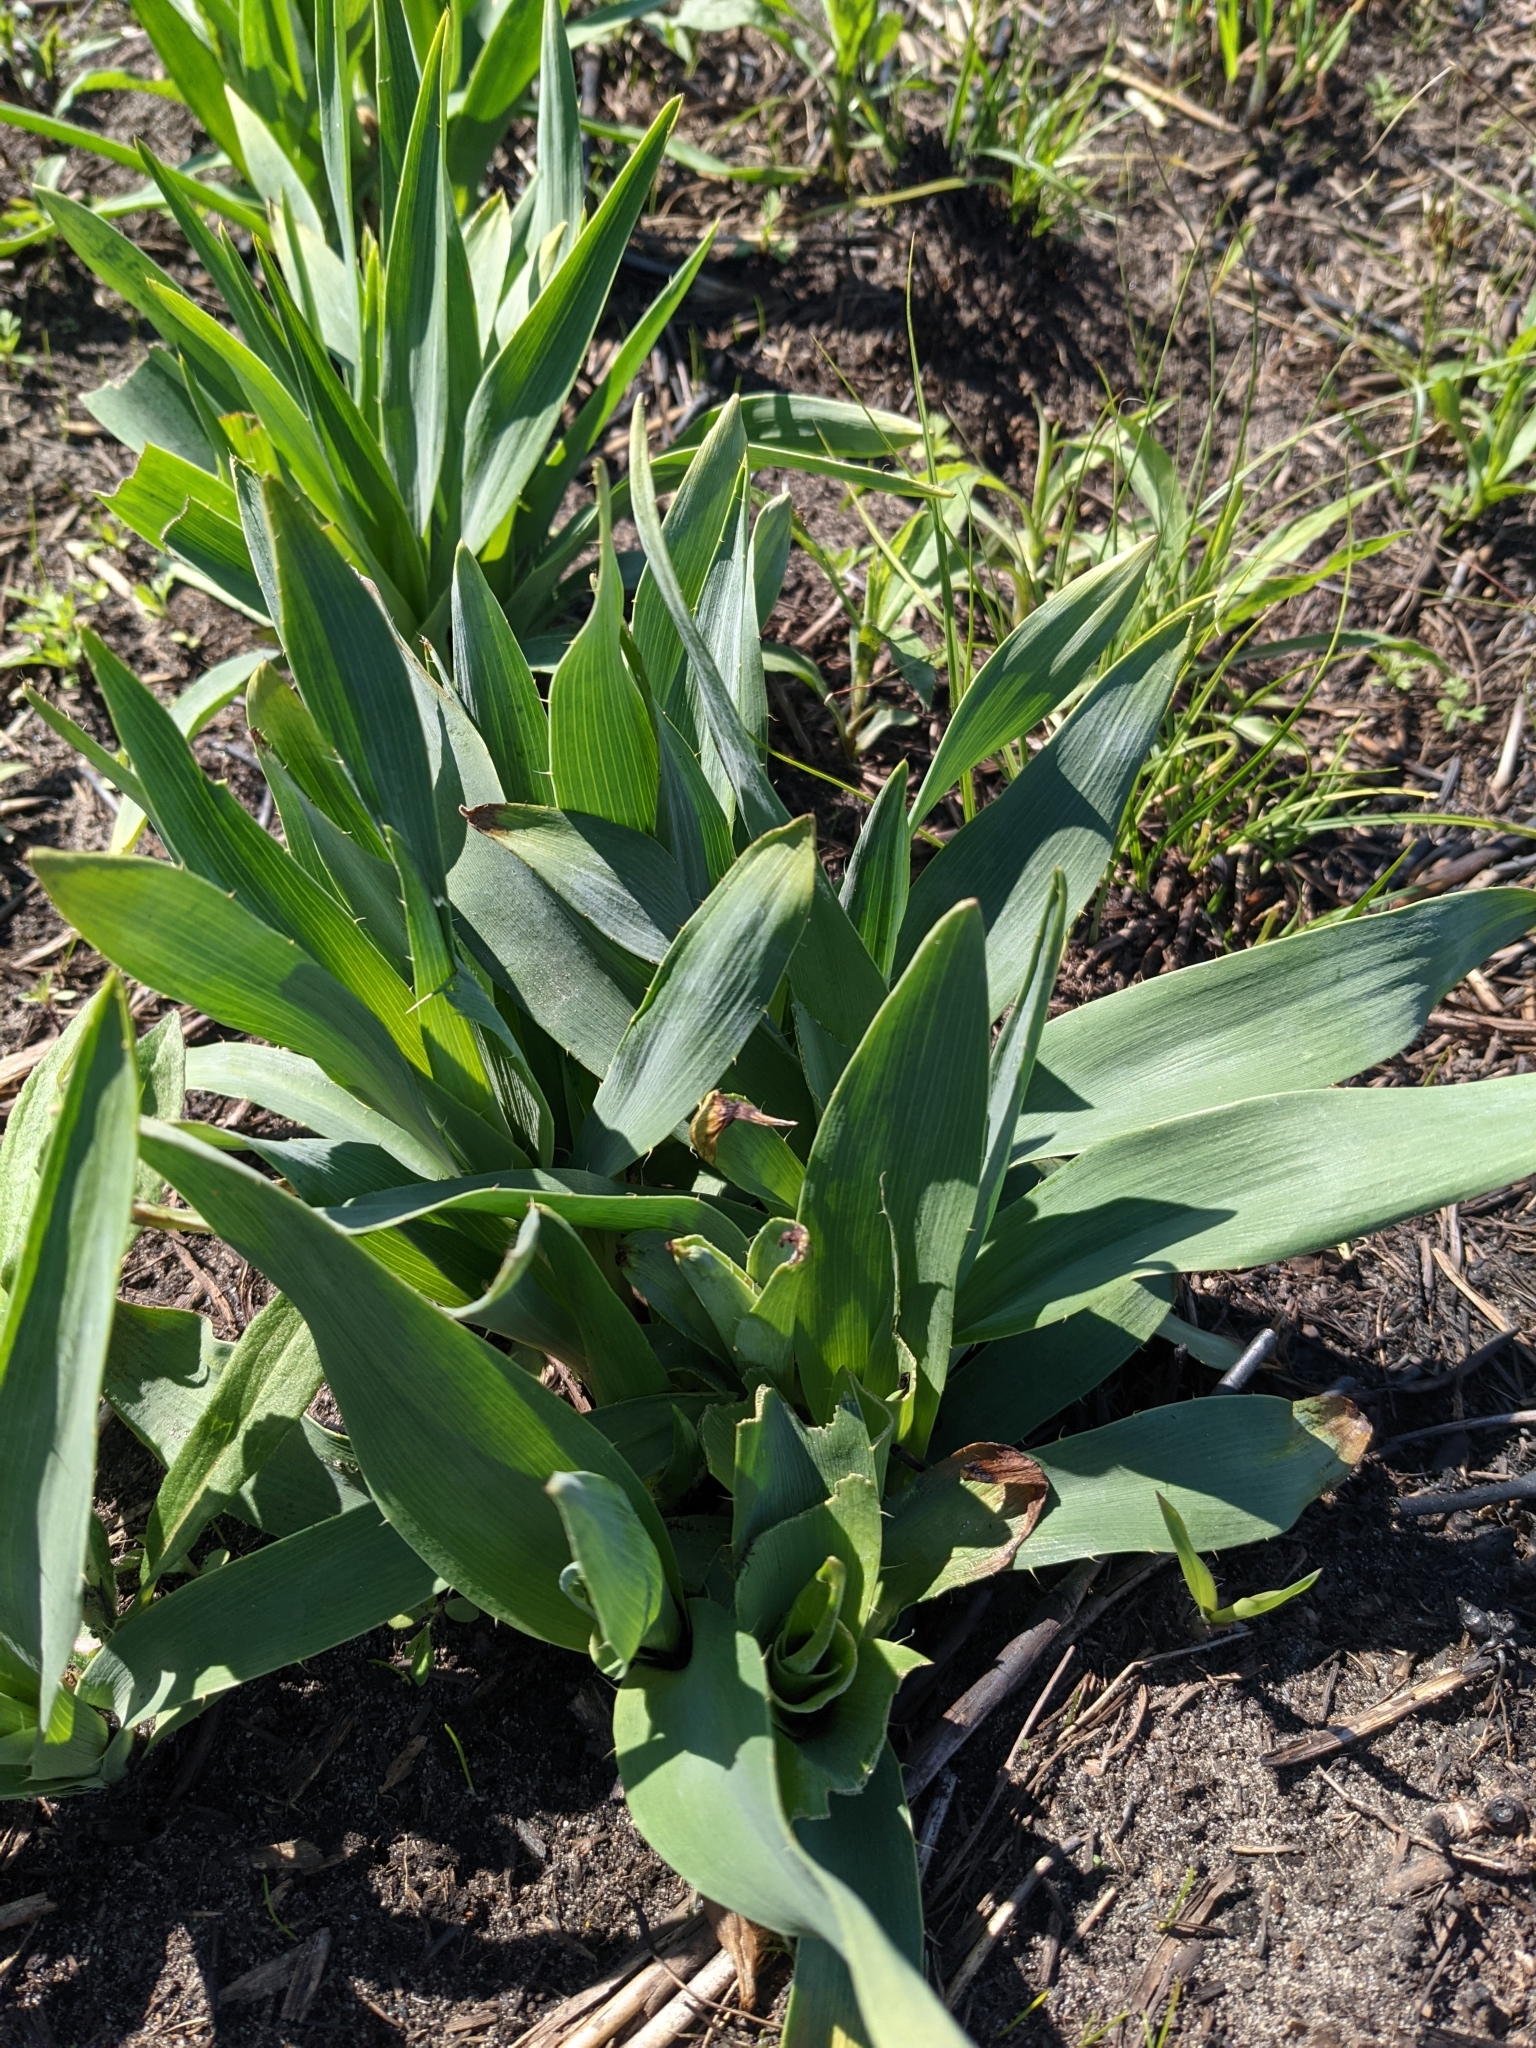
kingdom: Plantae
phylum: Tracheophyta
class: Magnoliopsida
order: Apiales
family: Apiaceae
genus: Eryngium
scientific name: Eryngium yuccifolium
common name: Button eryngo
